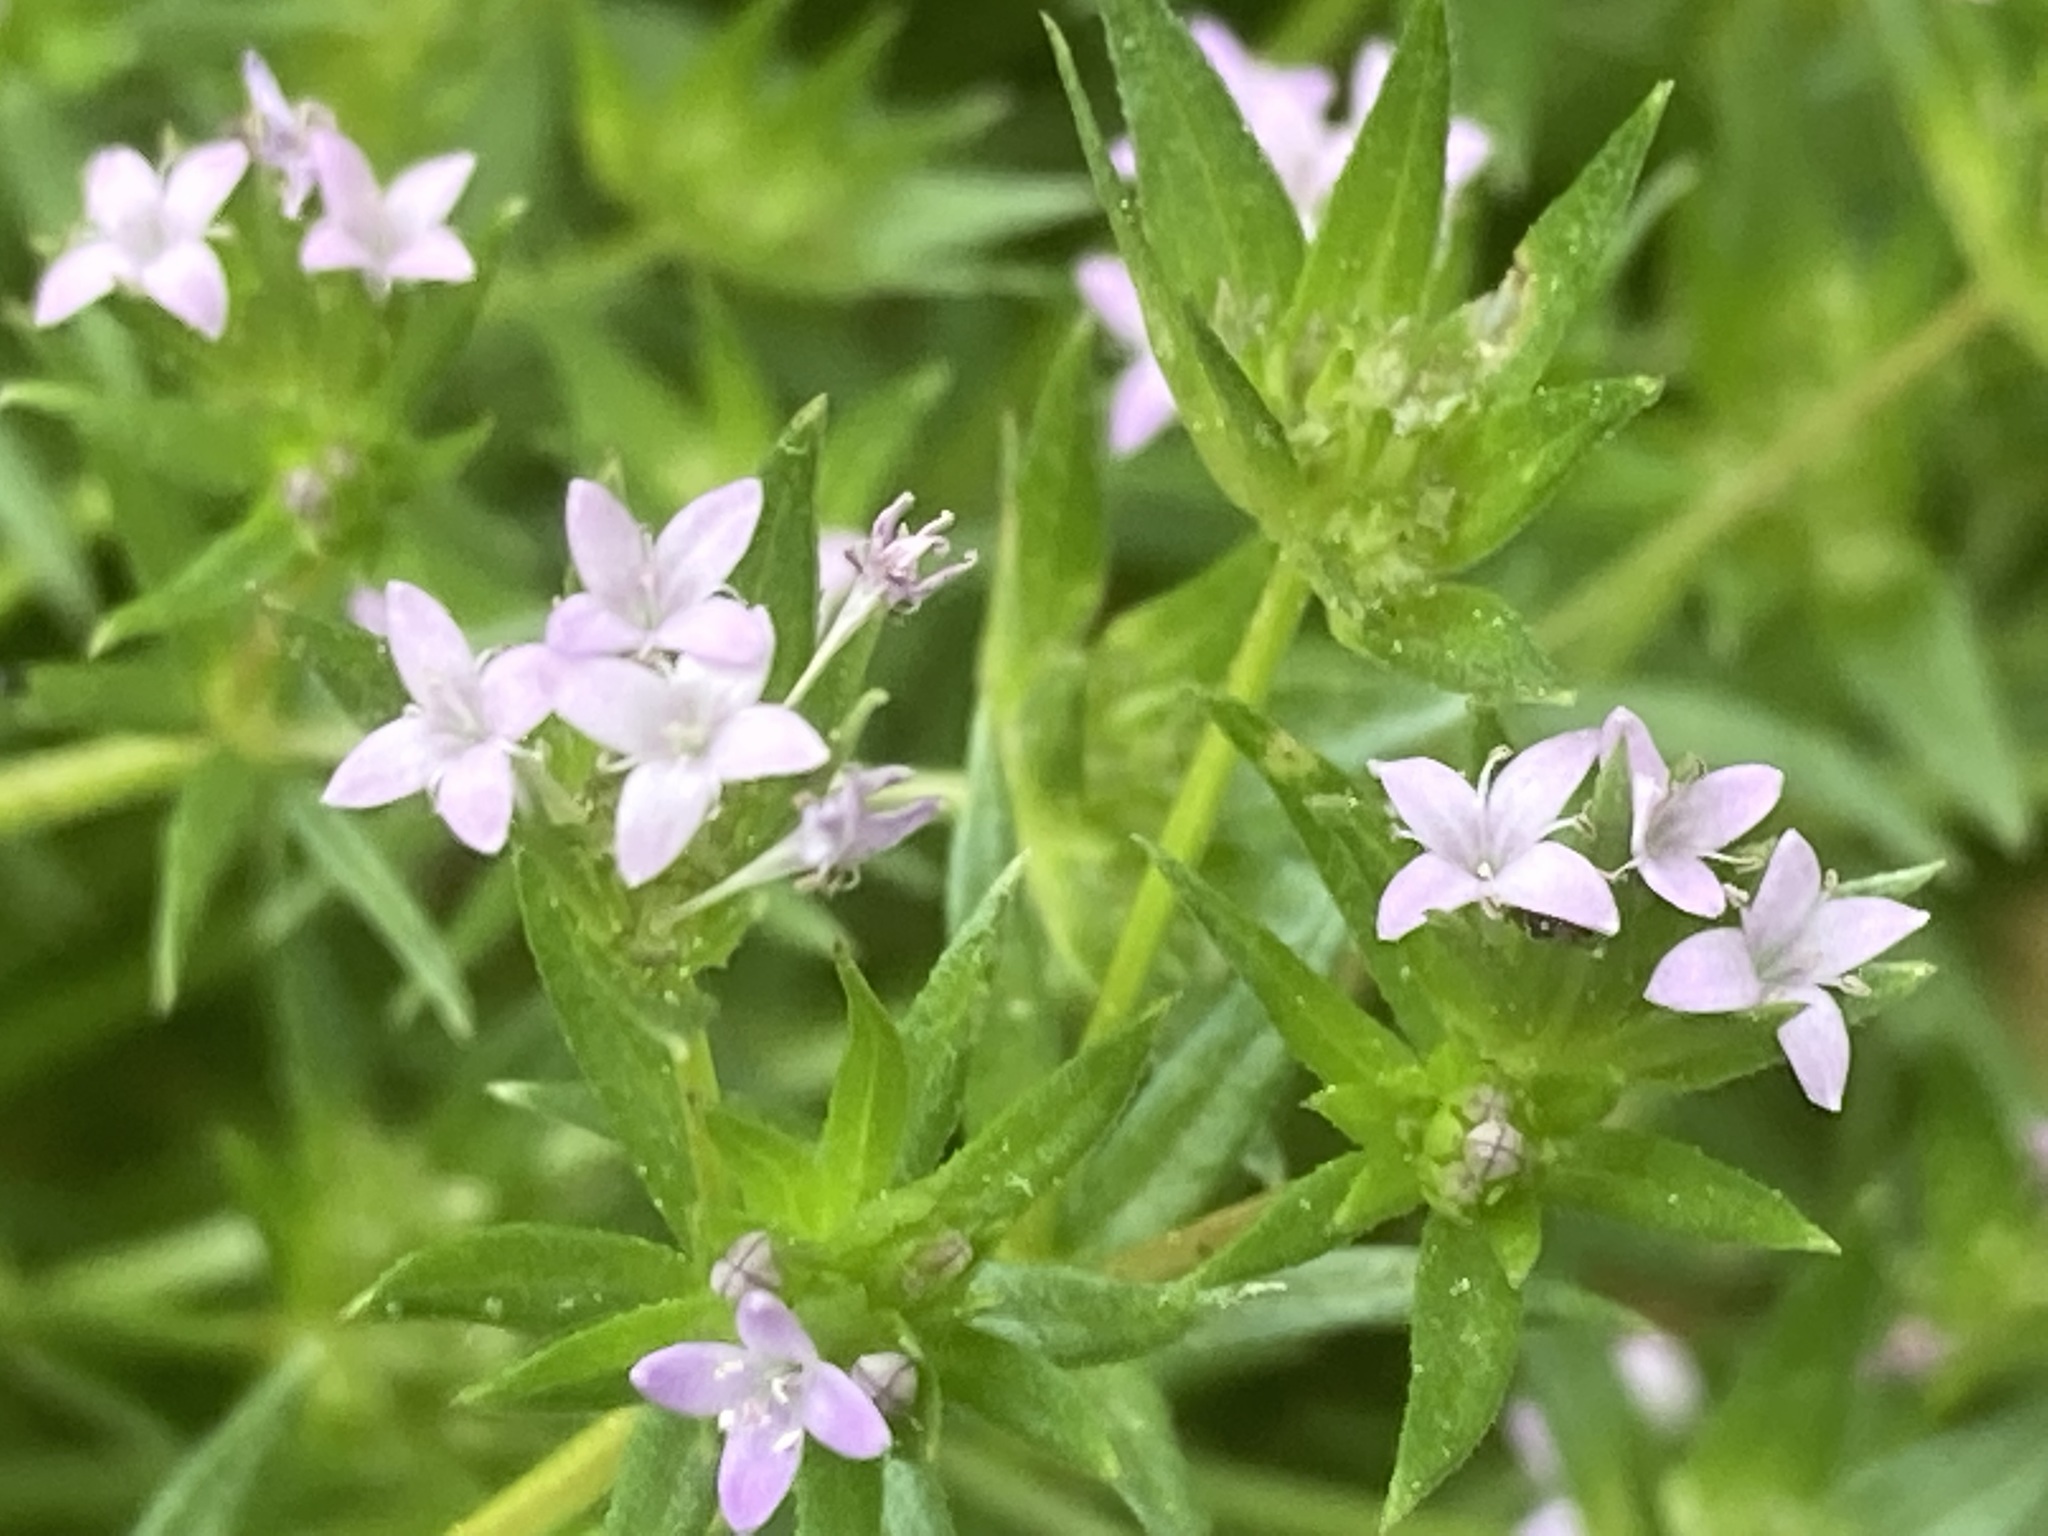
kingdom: Plantae
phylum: Tracheophyta
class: Magnoliopsida
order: Gentianales
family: Rubiaceae
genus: Sherardia
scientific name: Sherardia arvensis
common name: Field madder
